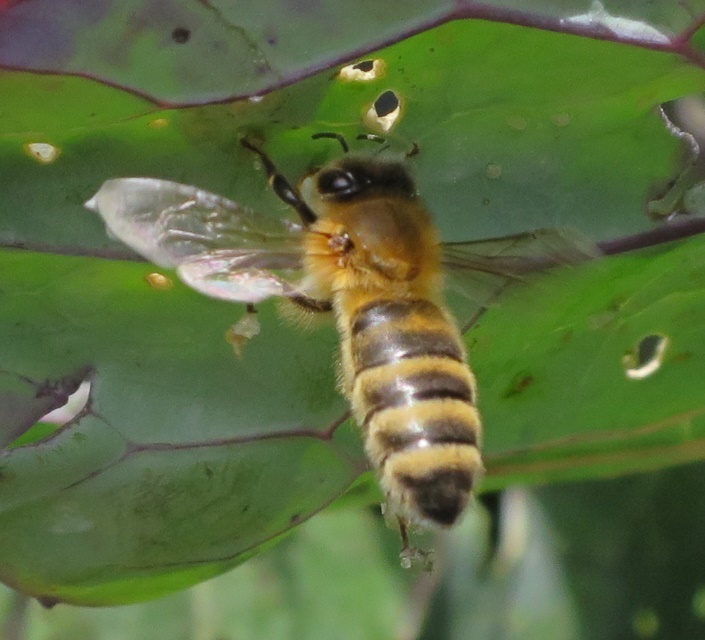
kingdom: Animalia
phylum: Arthropoda
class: Insecta
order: Hymenoptera
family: Apidae
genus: Apis
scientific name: Apis mellifera
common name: Honey bee
